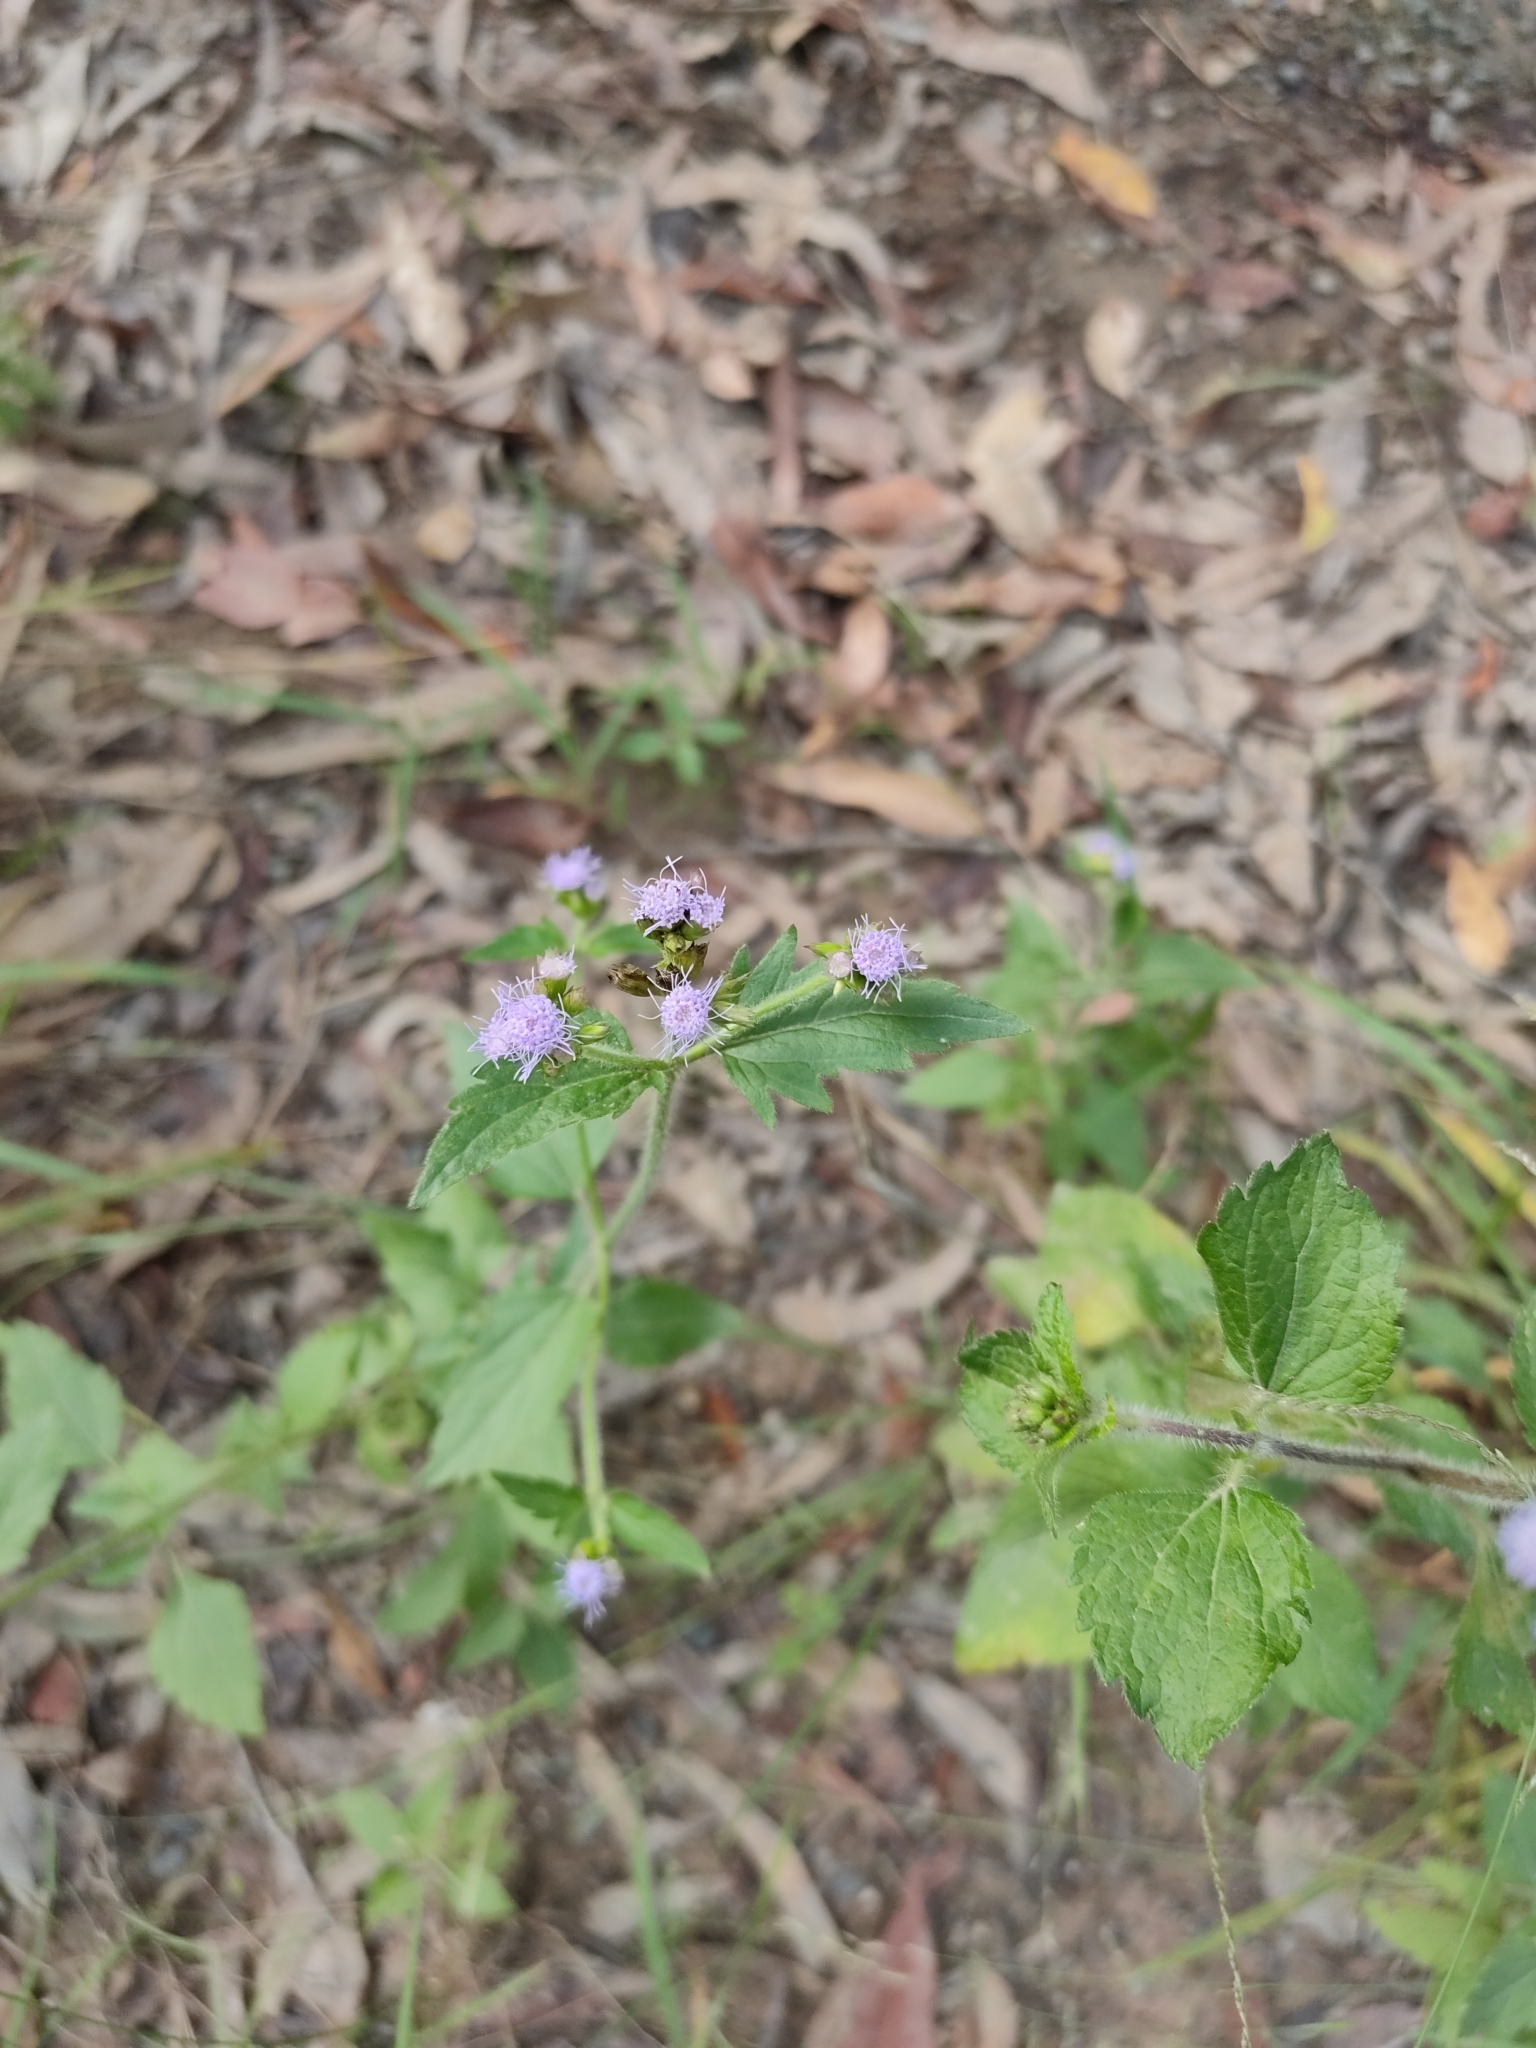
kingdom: Plantae
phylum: Tracheophyta
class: Magnoliopsida
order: Asterales
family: Asteraceae
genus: Praxelis
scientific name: Praxelis clematidea
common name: Praxelis
